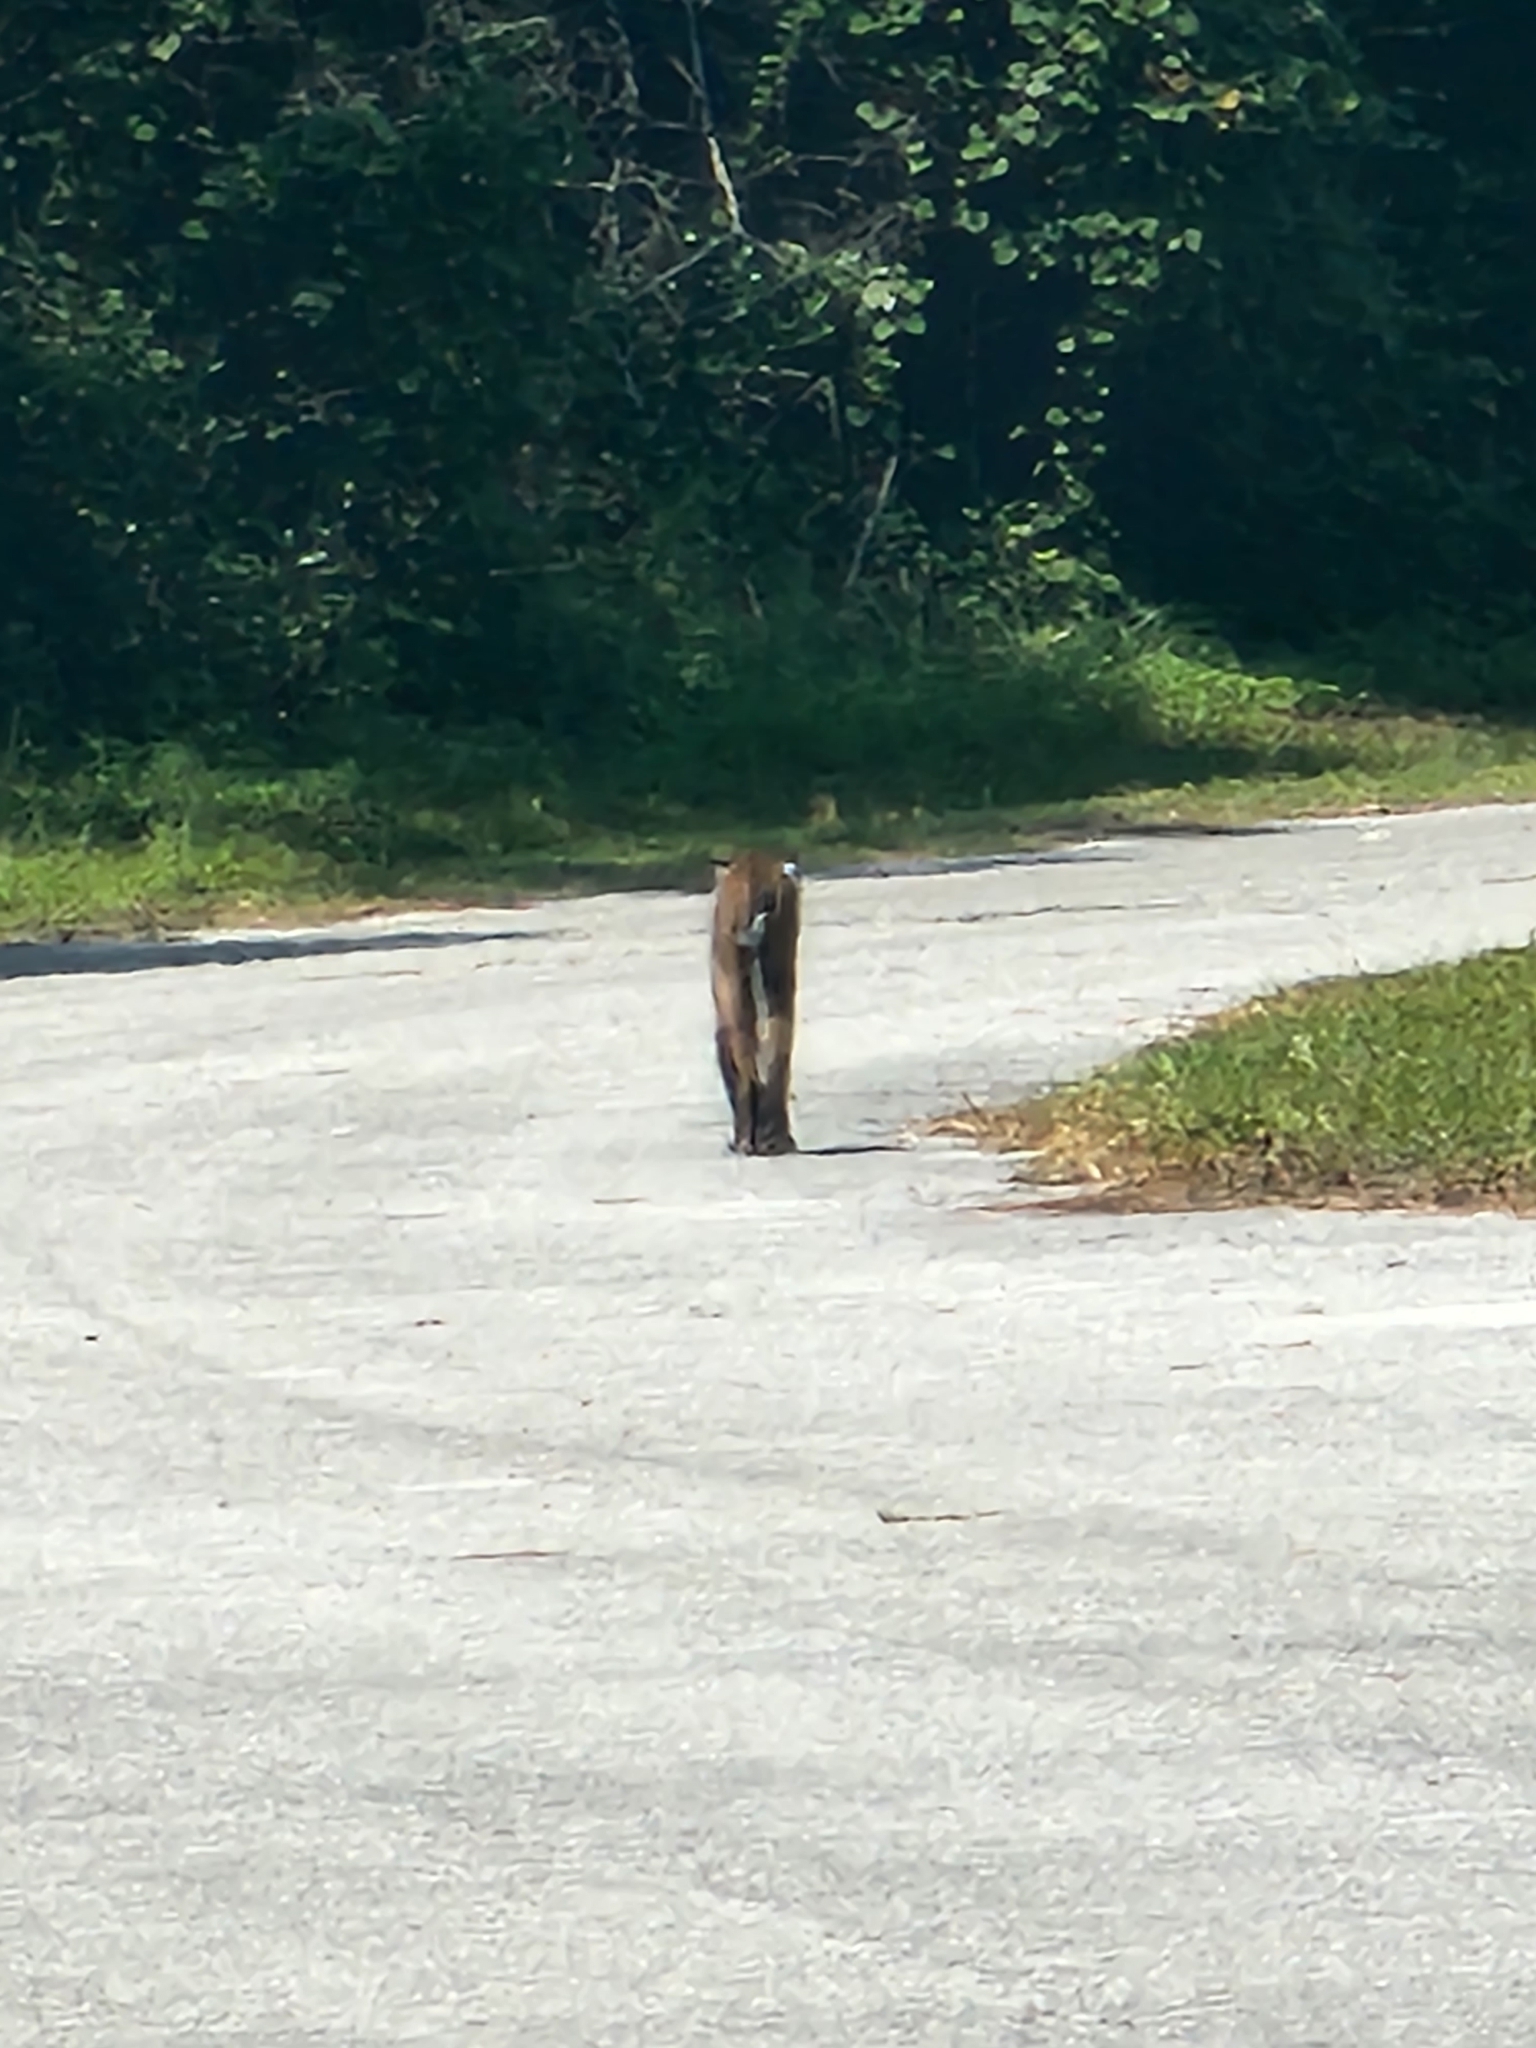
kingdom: Animalia
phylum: Chordata
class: Mammalia
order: Carnivora
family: Felidae
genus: Lynx
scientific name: Lynx rufus
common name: Bobcat
